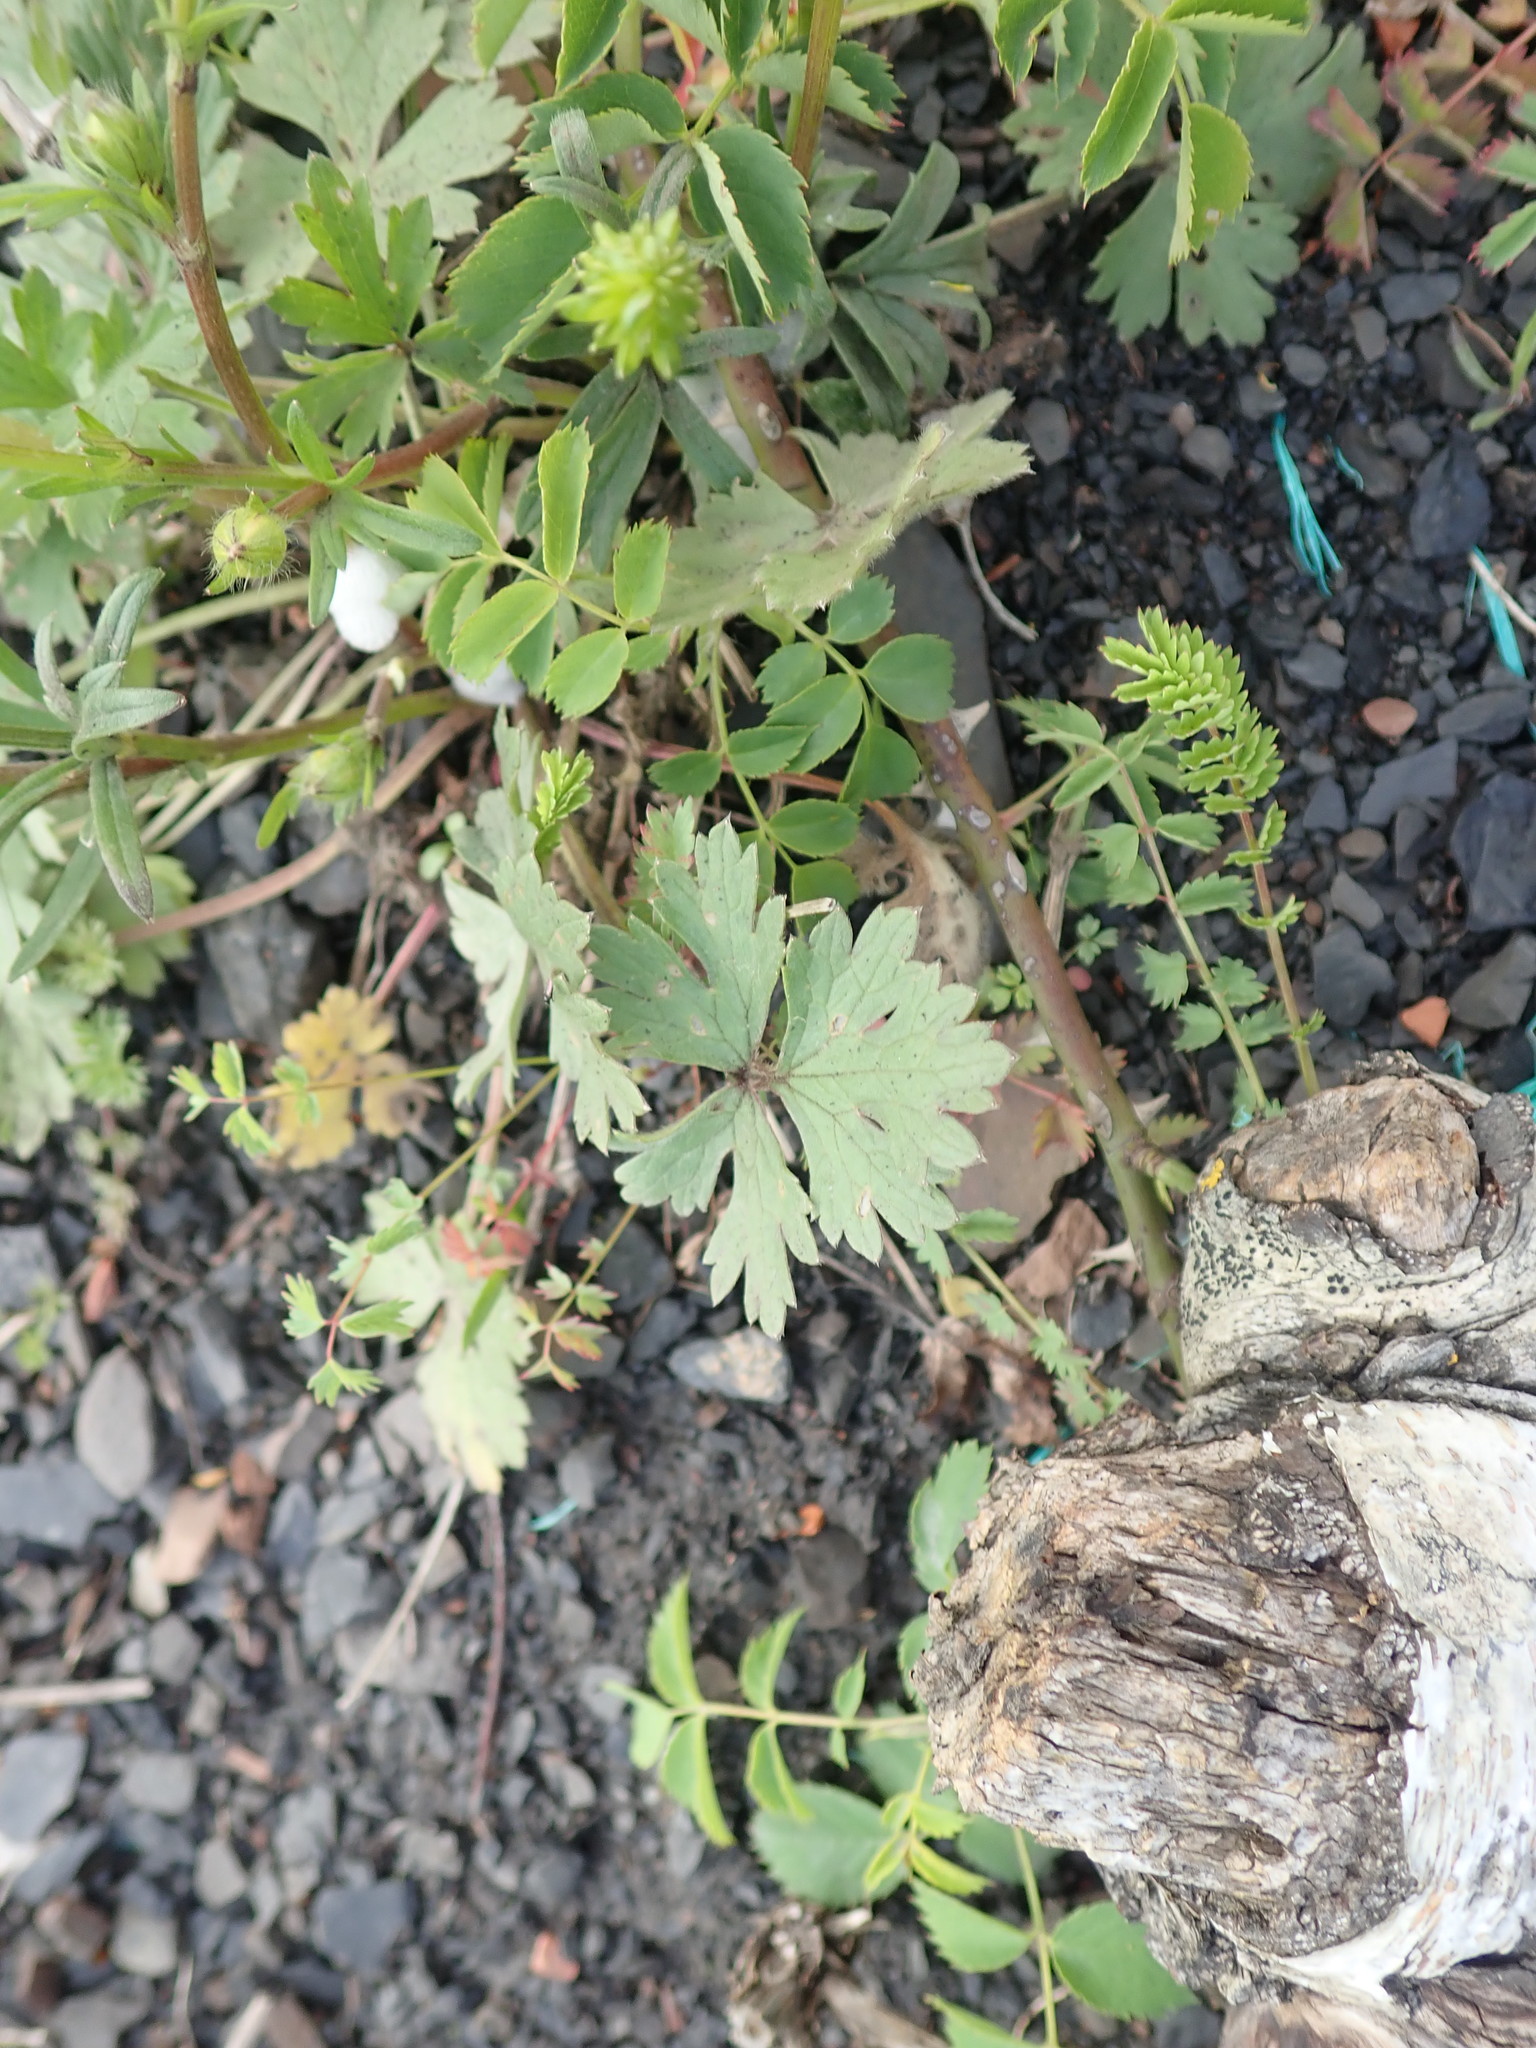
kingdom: Plantae
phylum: Tracheophyta
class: Magnoliopsida
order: Ranunculales
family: Ranunculaceae
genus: Ranunculus
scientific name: Ranunculus bulbosus
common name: Bulbous buttercup
